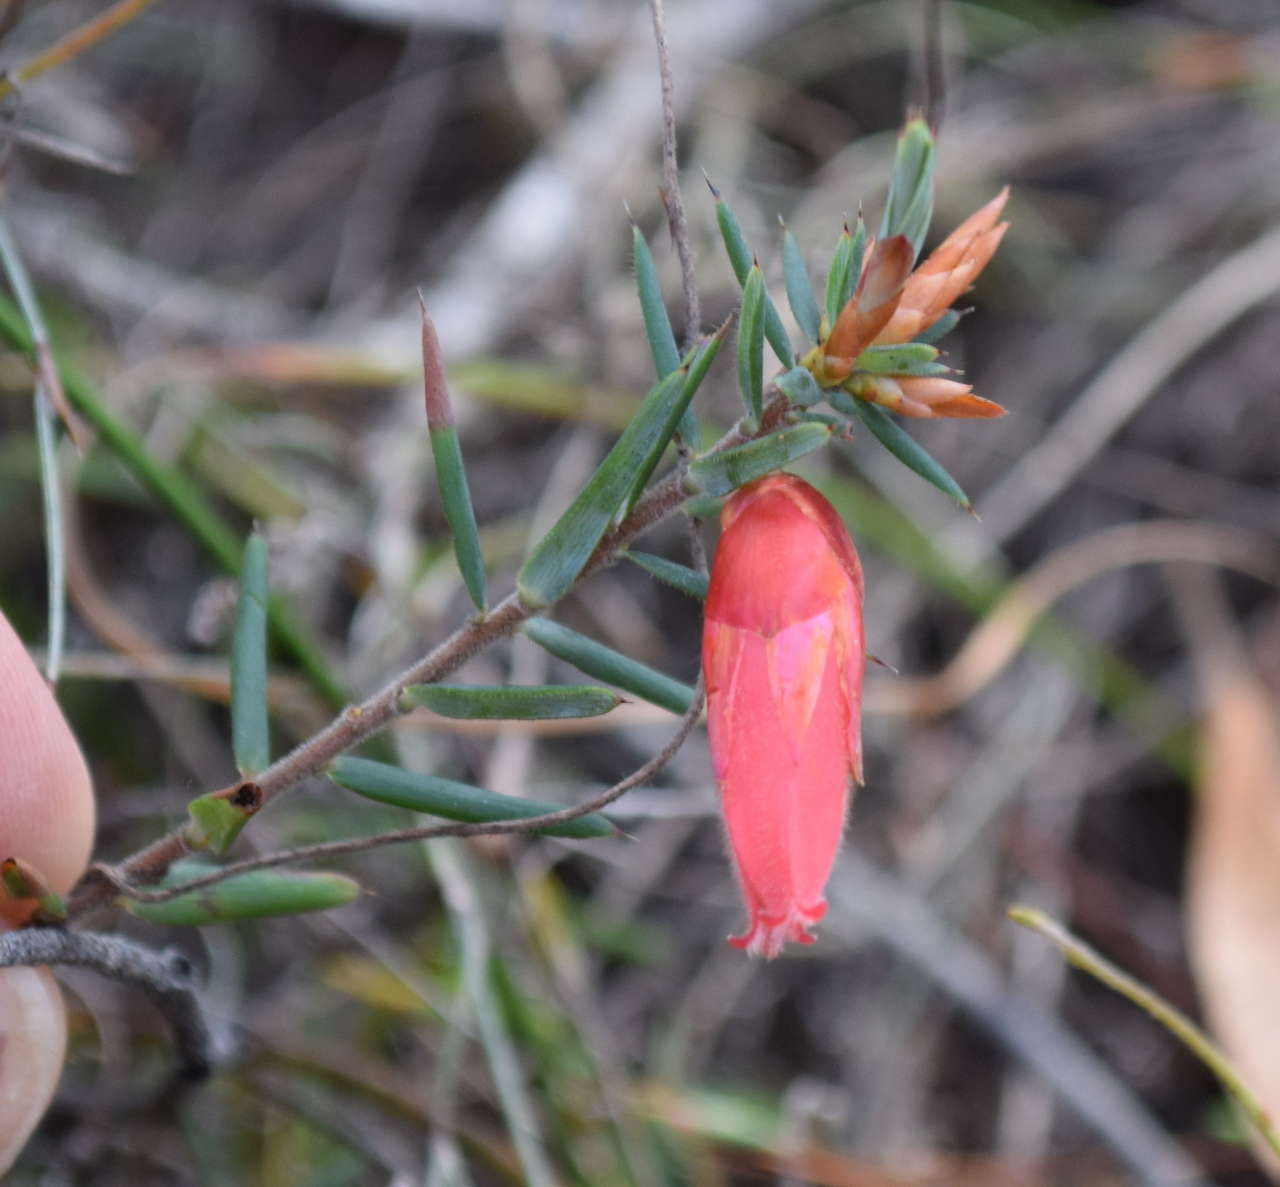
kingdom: Plantae
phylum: Tracheophyta
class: Magnoliopsida
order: Ericales
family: Ericaceae
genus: Stenanthera
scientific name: Stenanthera conostephioides
